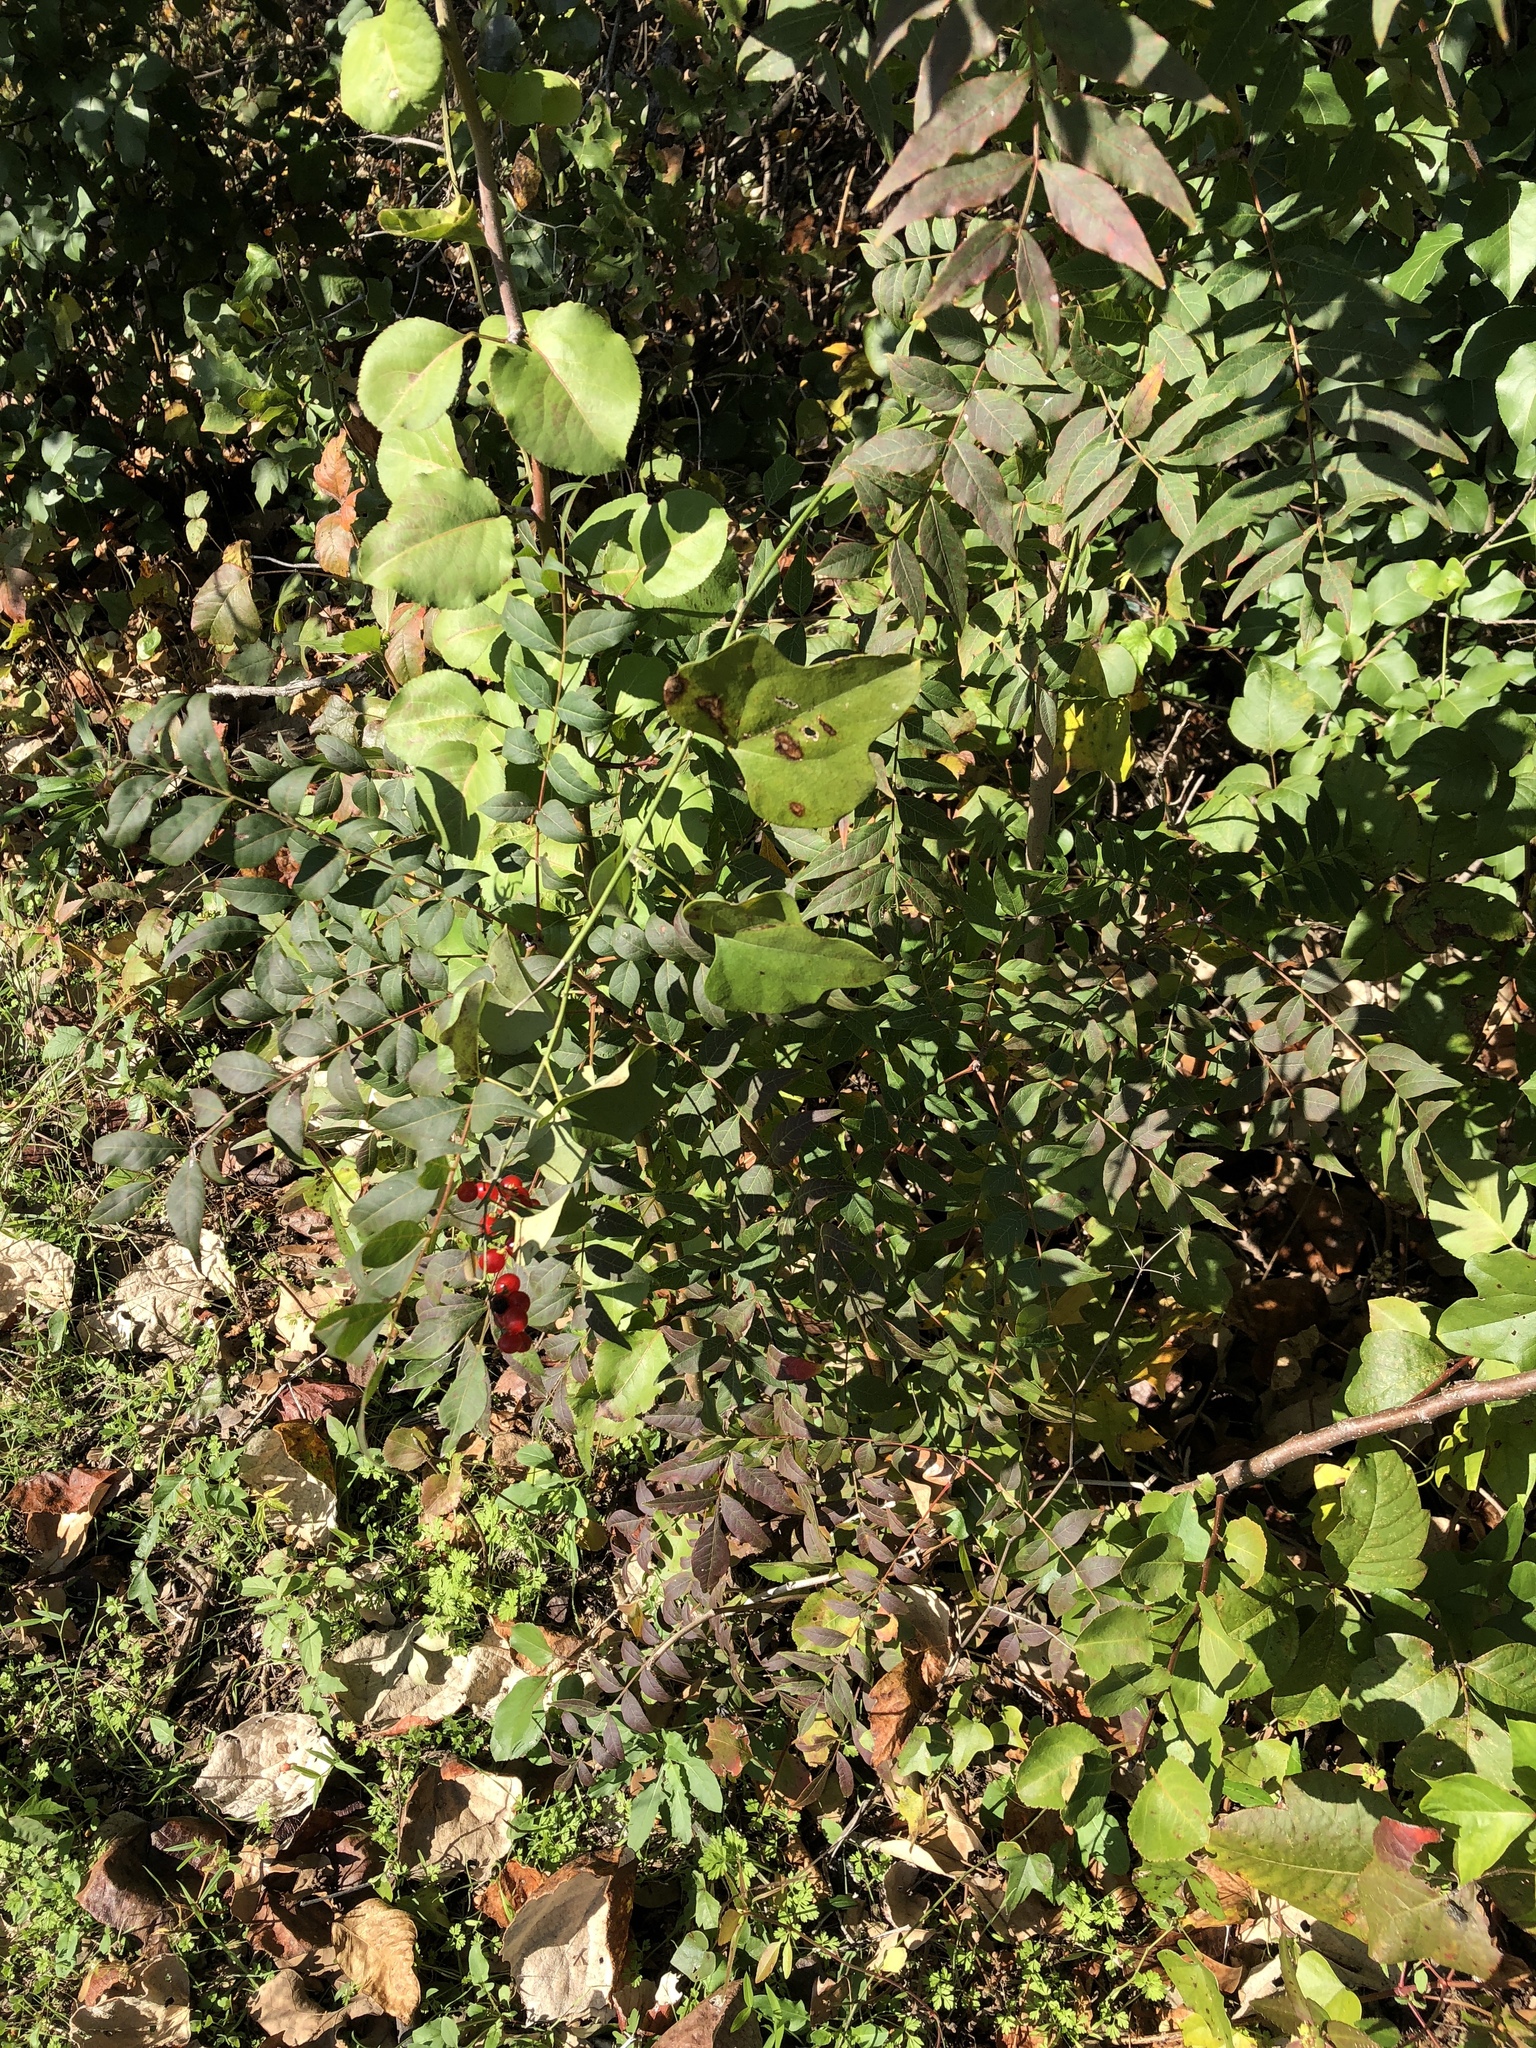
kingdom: Plantae
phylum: Tracheophyta
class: Magnoliopsida
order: Ranunculales
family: Menispermaceae
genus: Cocculus
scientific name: Cocculus carolinus
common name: Carolina moonseed
